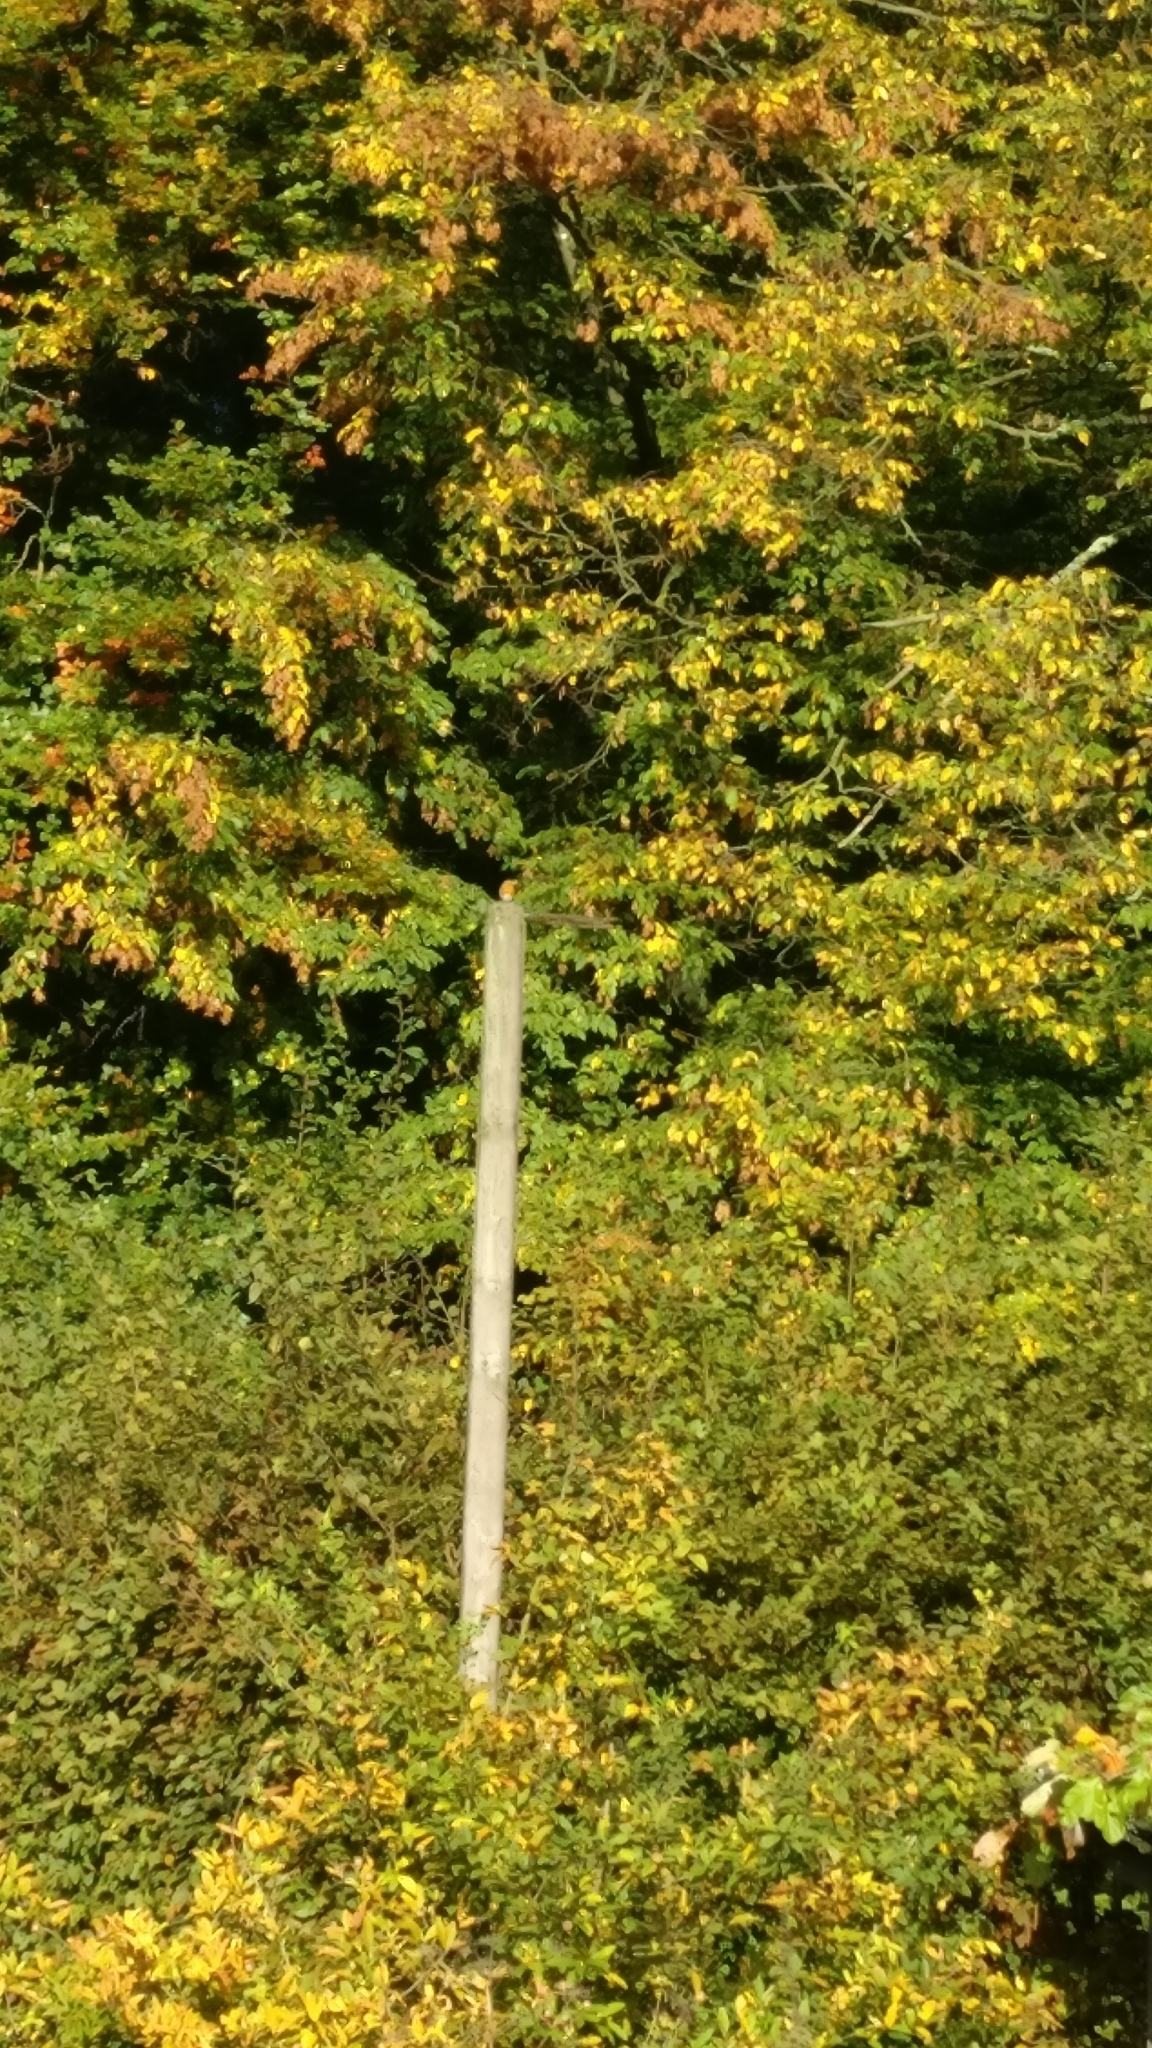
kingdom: Animalia
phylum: Chordata
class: Aves
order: Passeriformes
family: Muscicapidae
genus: Erithacus
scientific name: Erithacus rubecula
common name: European robin
